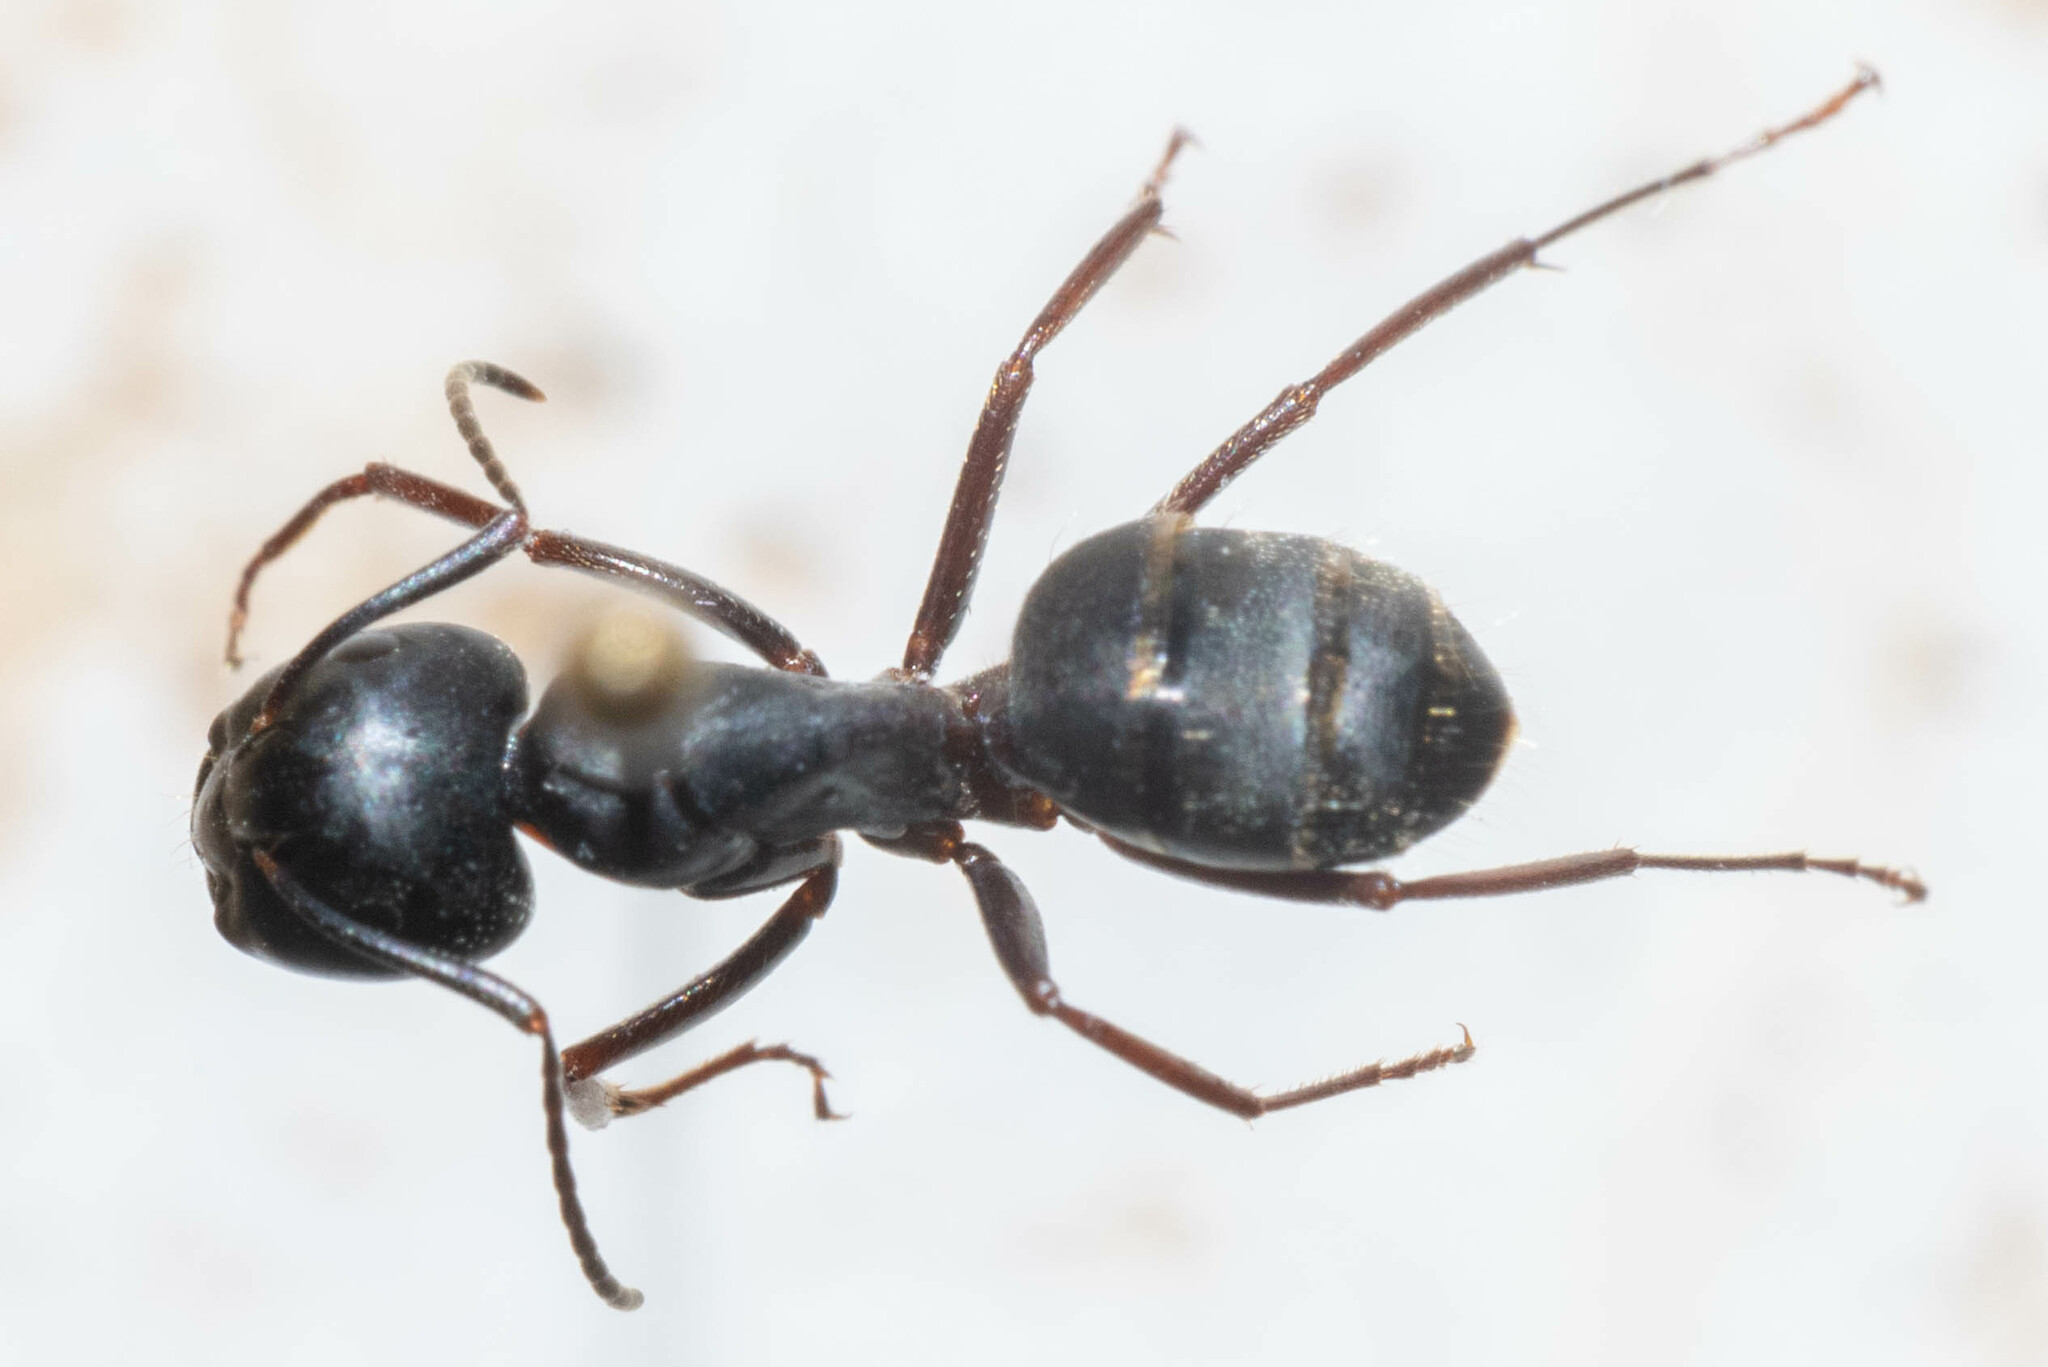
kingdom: Animalia
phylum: Arthropoda
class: Insecta
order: Hymenoptera
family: Formicidae
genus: Camponotus
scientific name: Camponotus modoc
